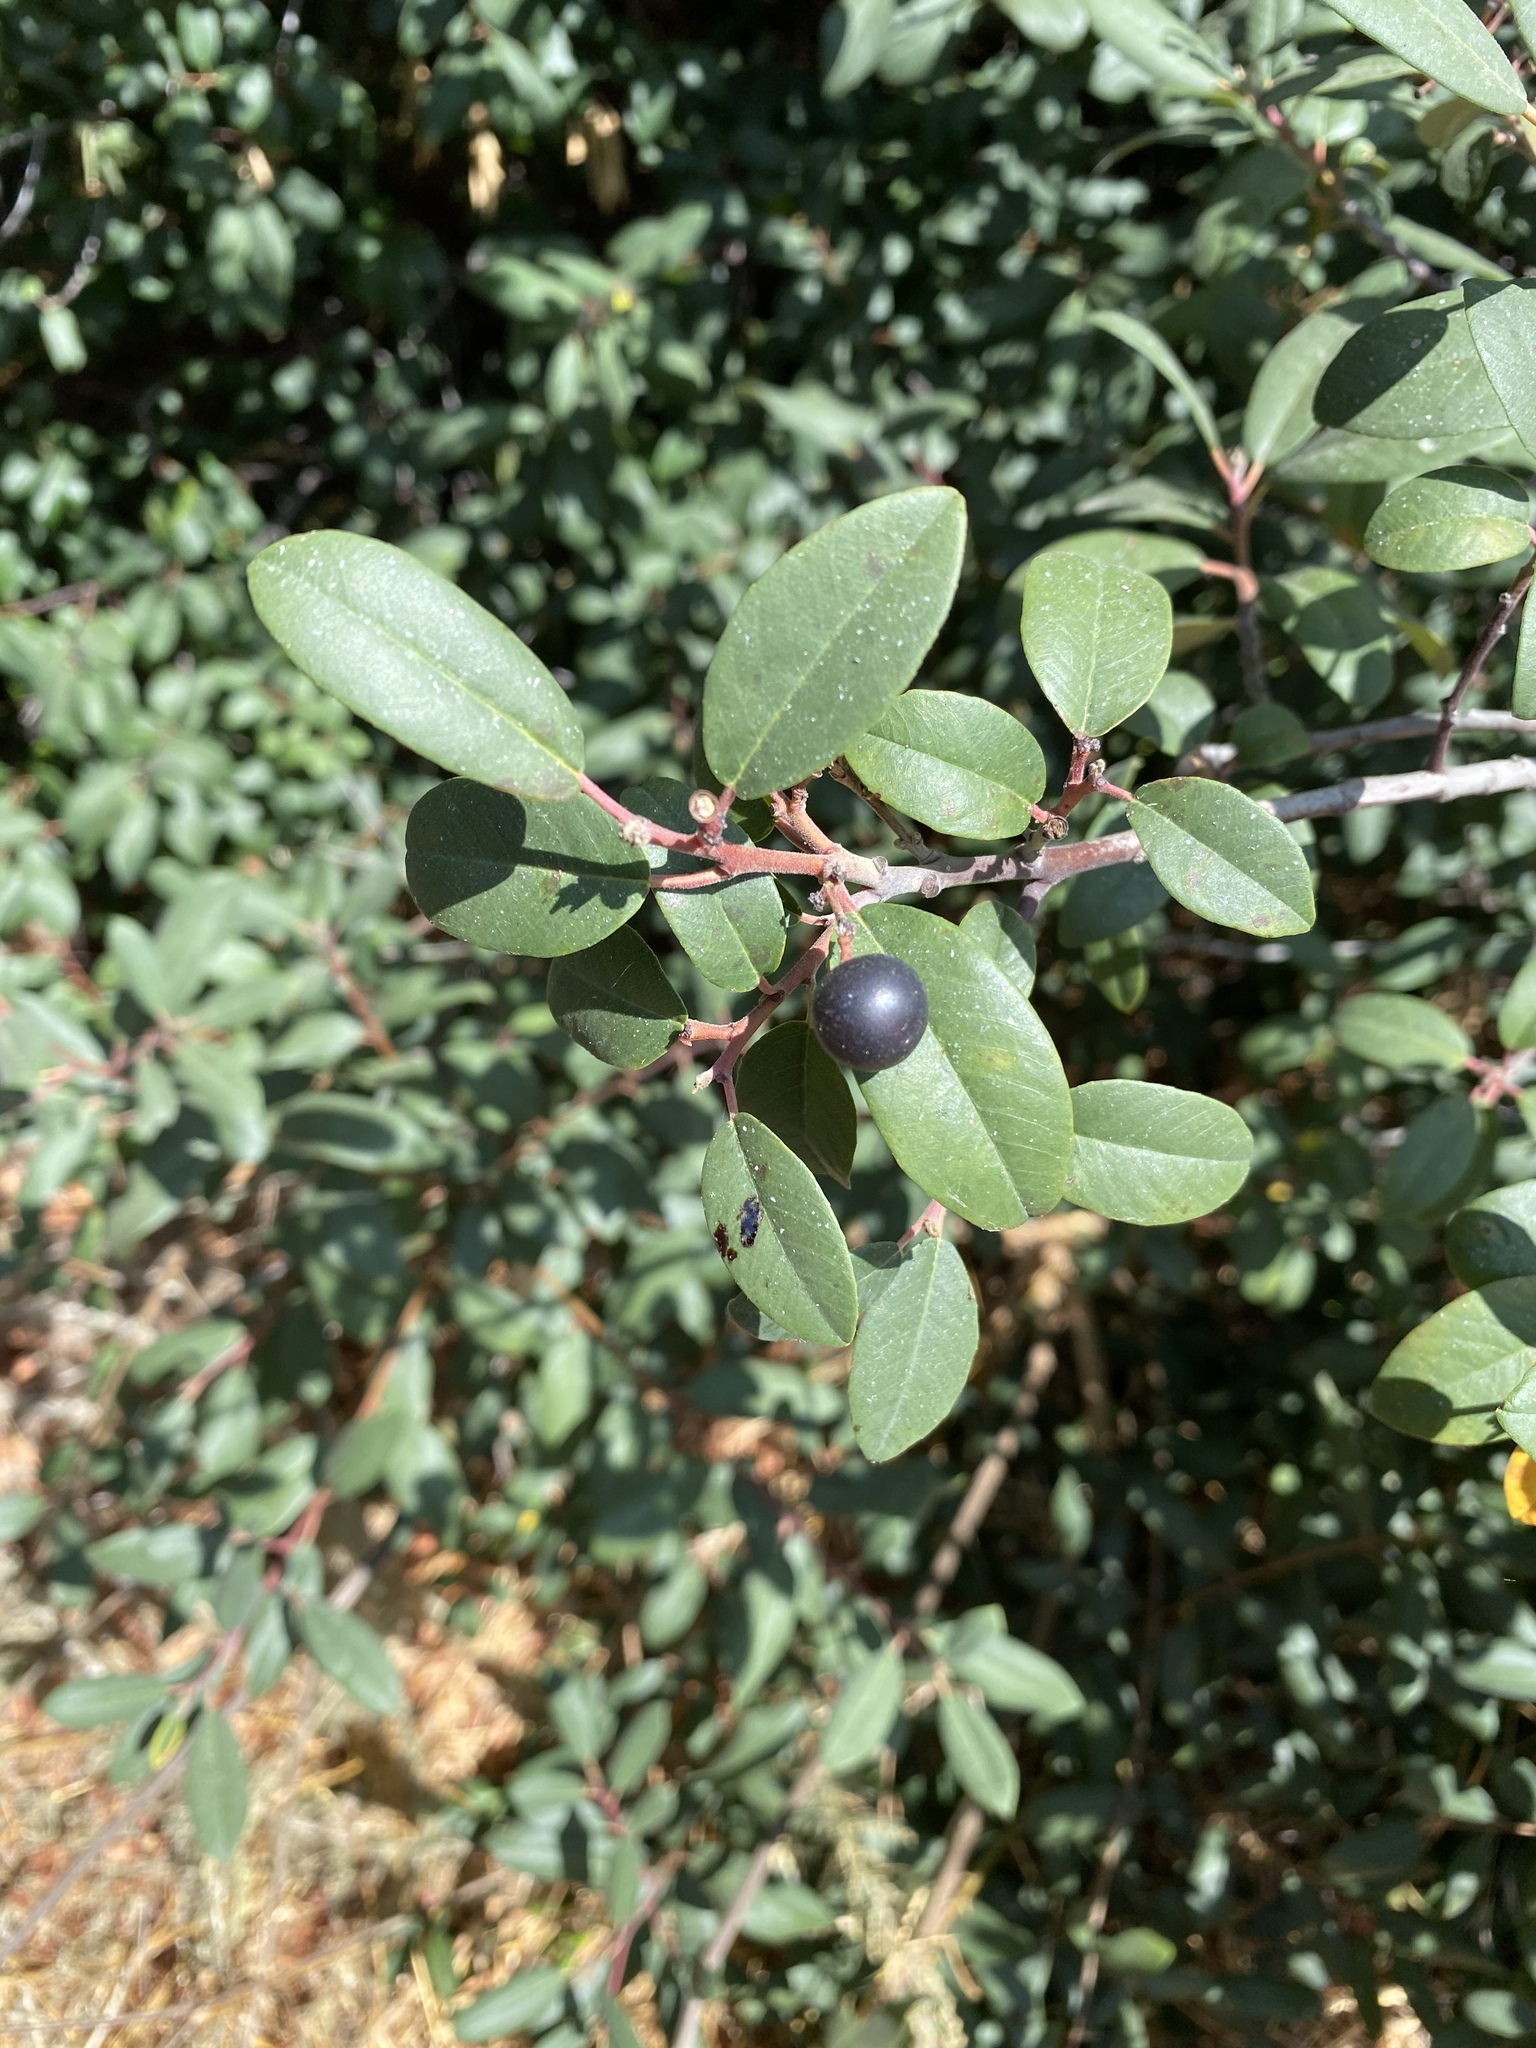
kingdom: Plantae
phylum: Tracheophyta
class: Magnoliopsida
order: Rosales
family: Rhamnaceae
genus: Frangula
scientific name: Frangula californica
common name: California buckthorn
